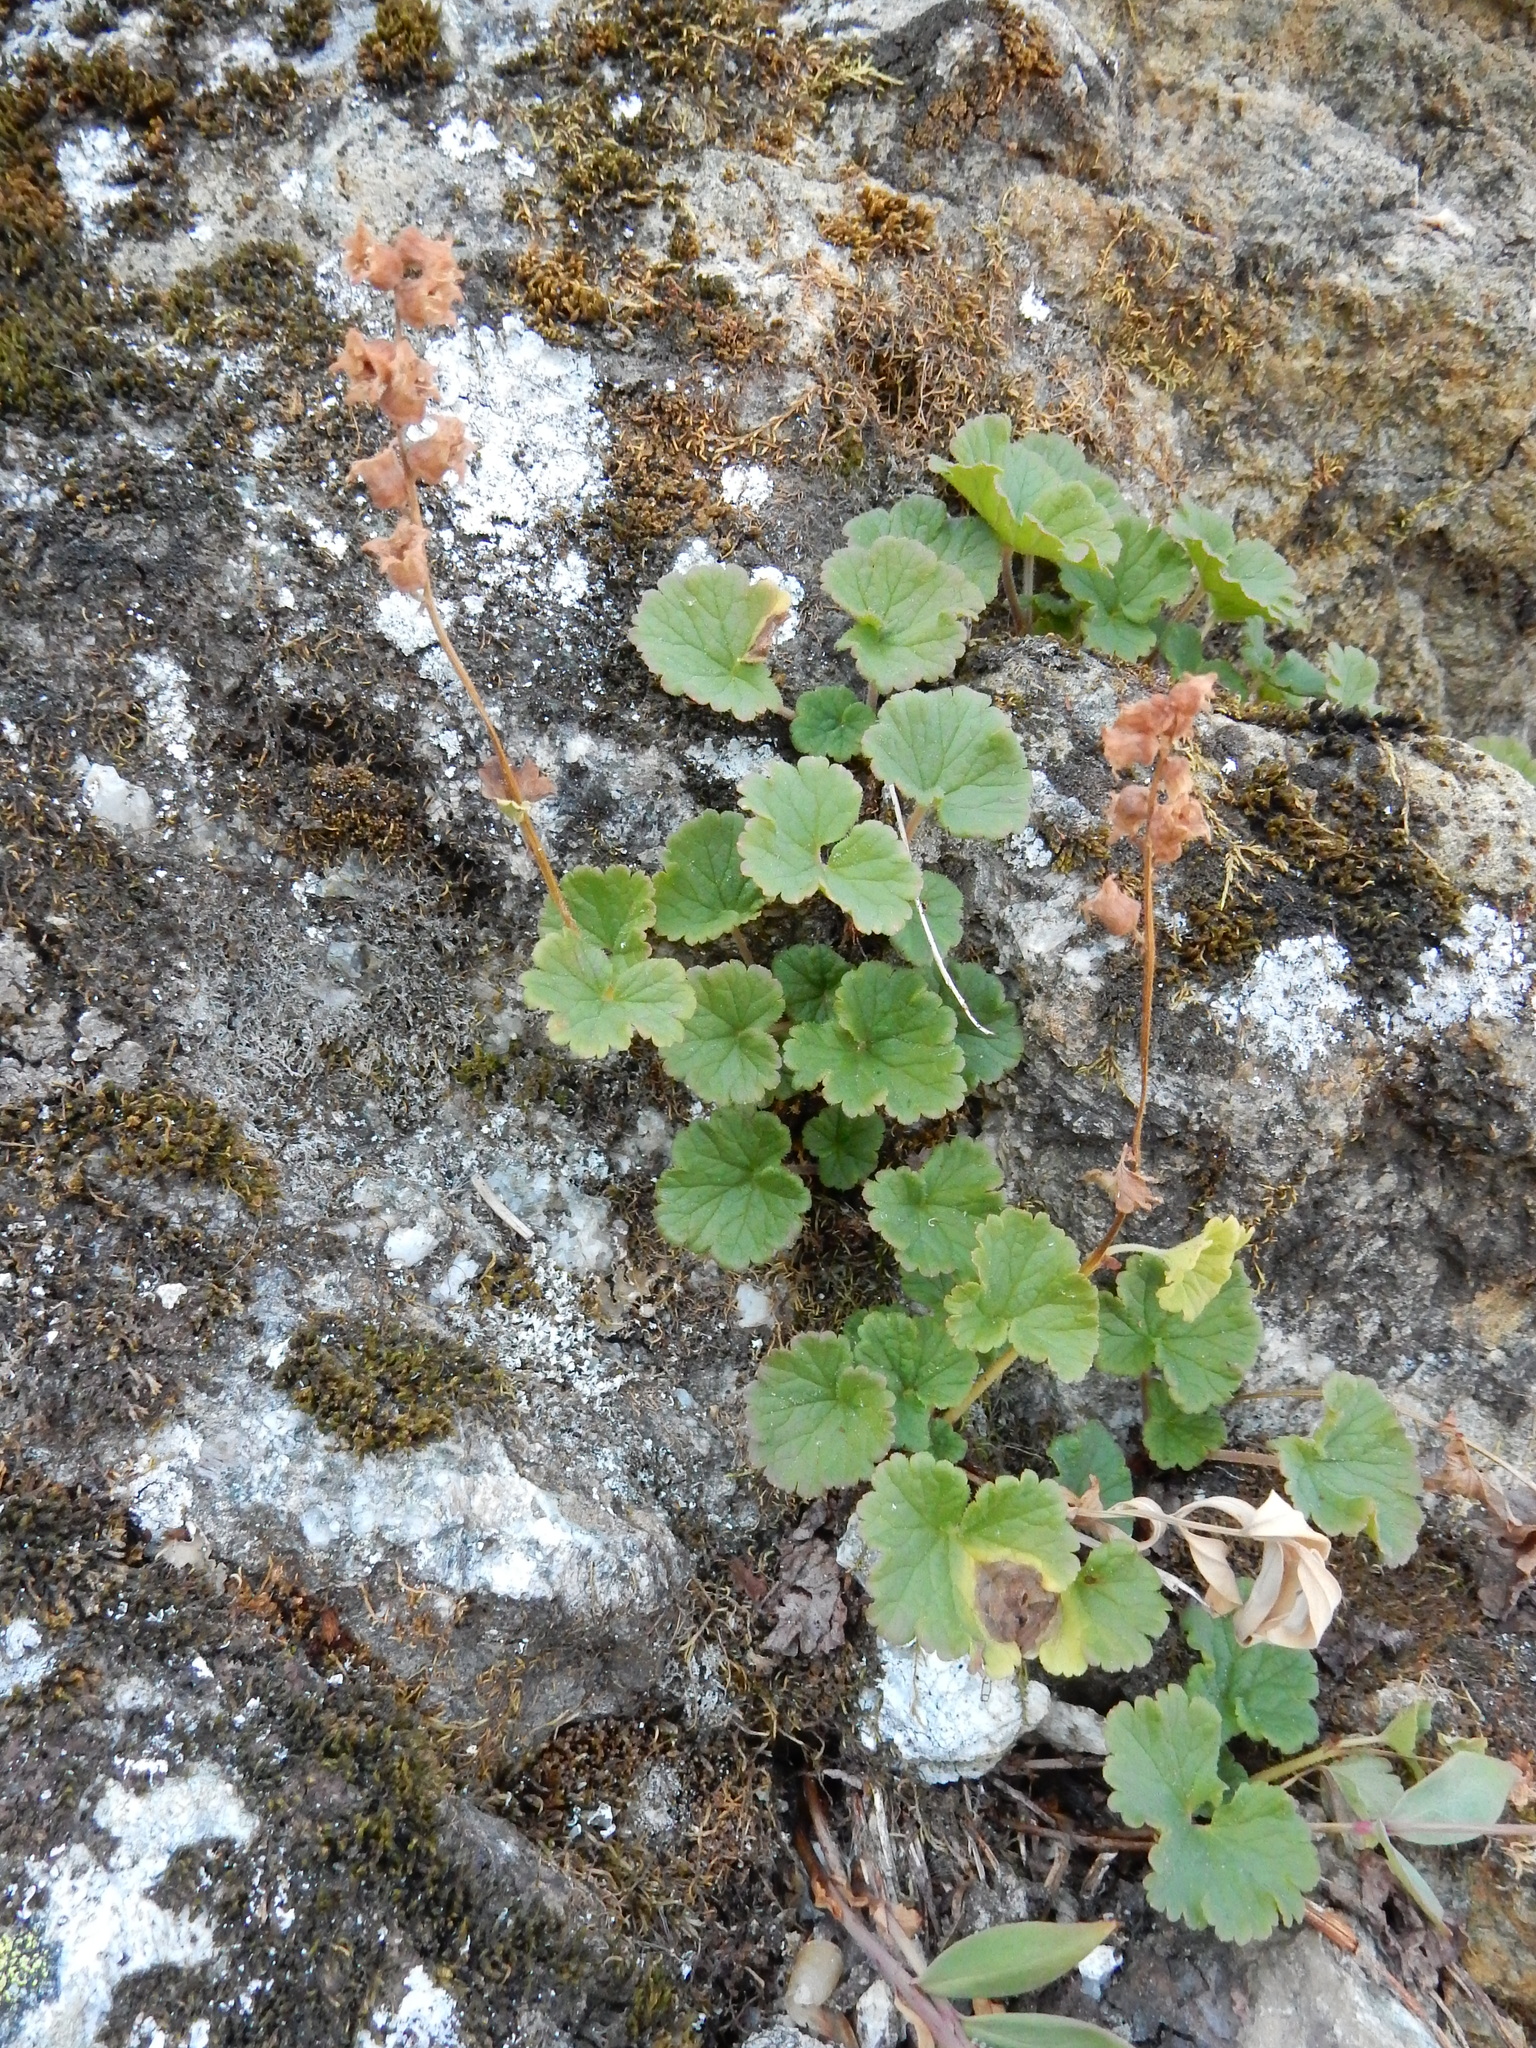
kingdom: Plantae
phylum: Tracheophyta
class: Magnoliopsida
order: Saxifragales
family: Saxifragaceae
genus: Elmera
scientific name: Elmera racemosa
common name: Elmera
